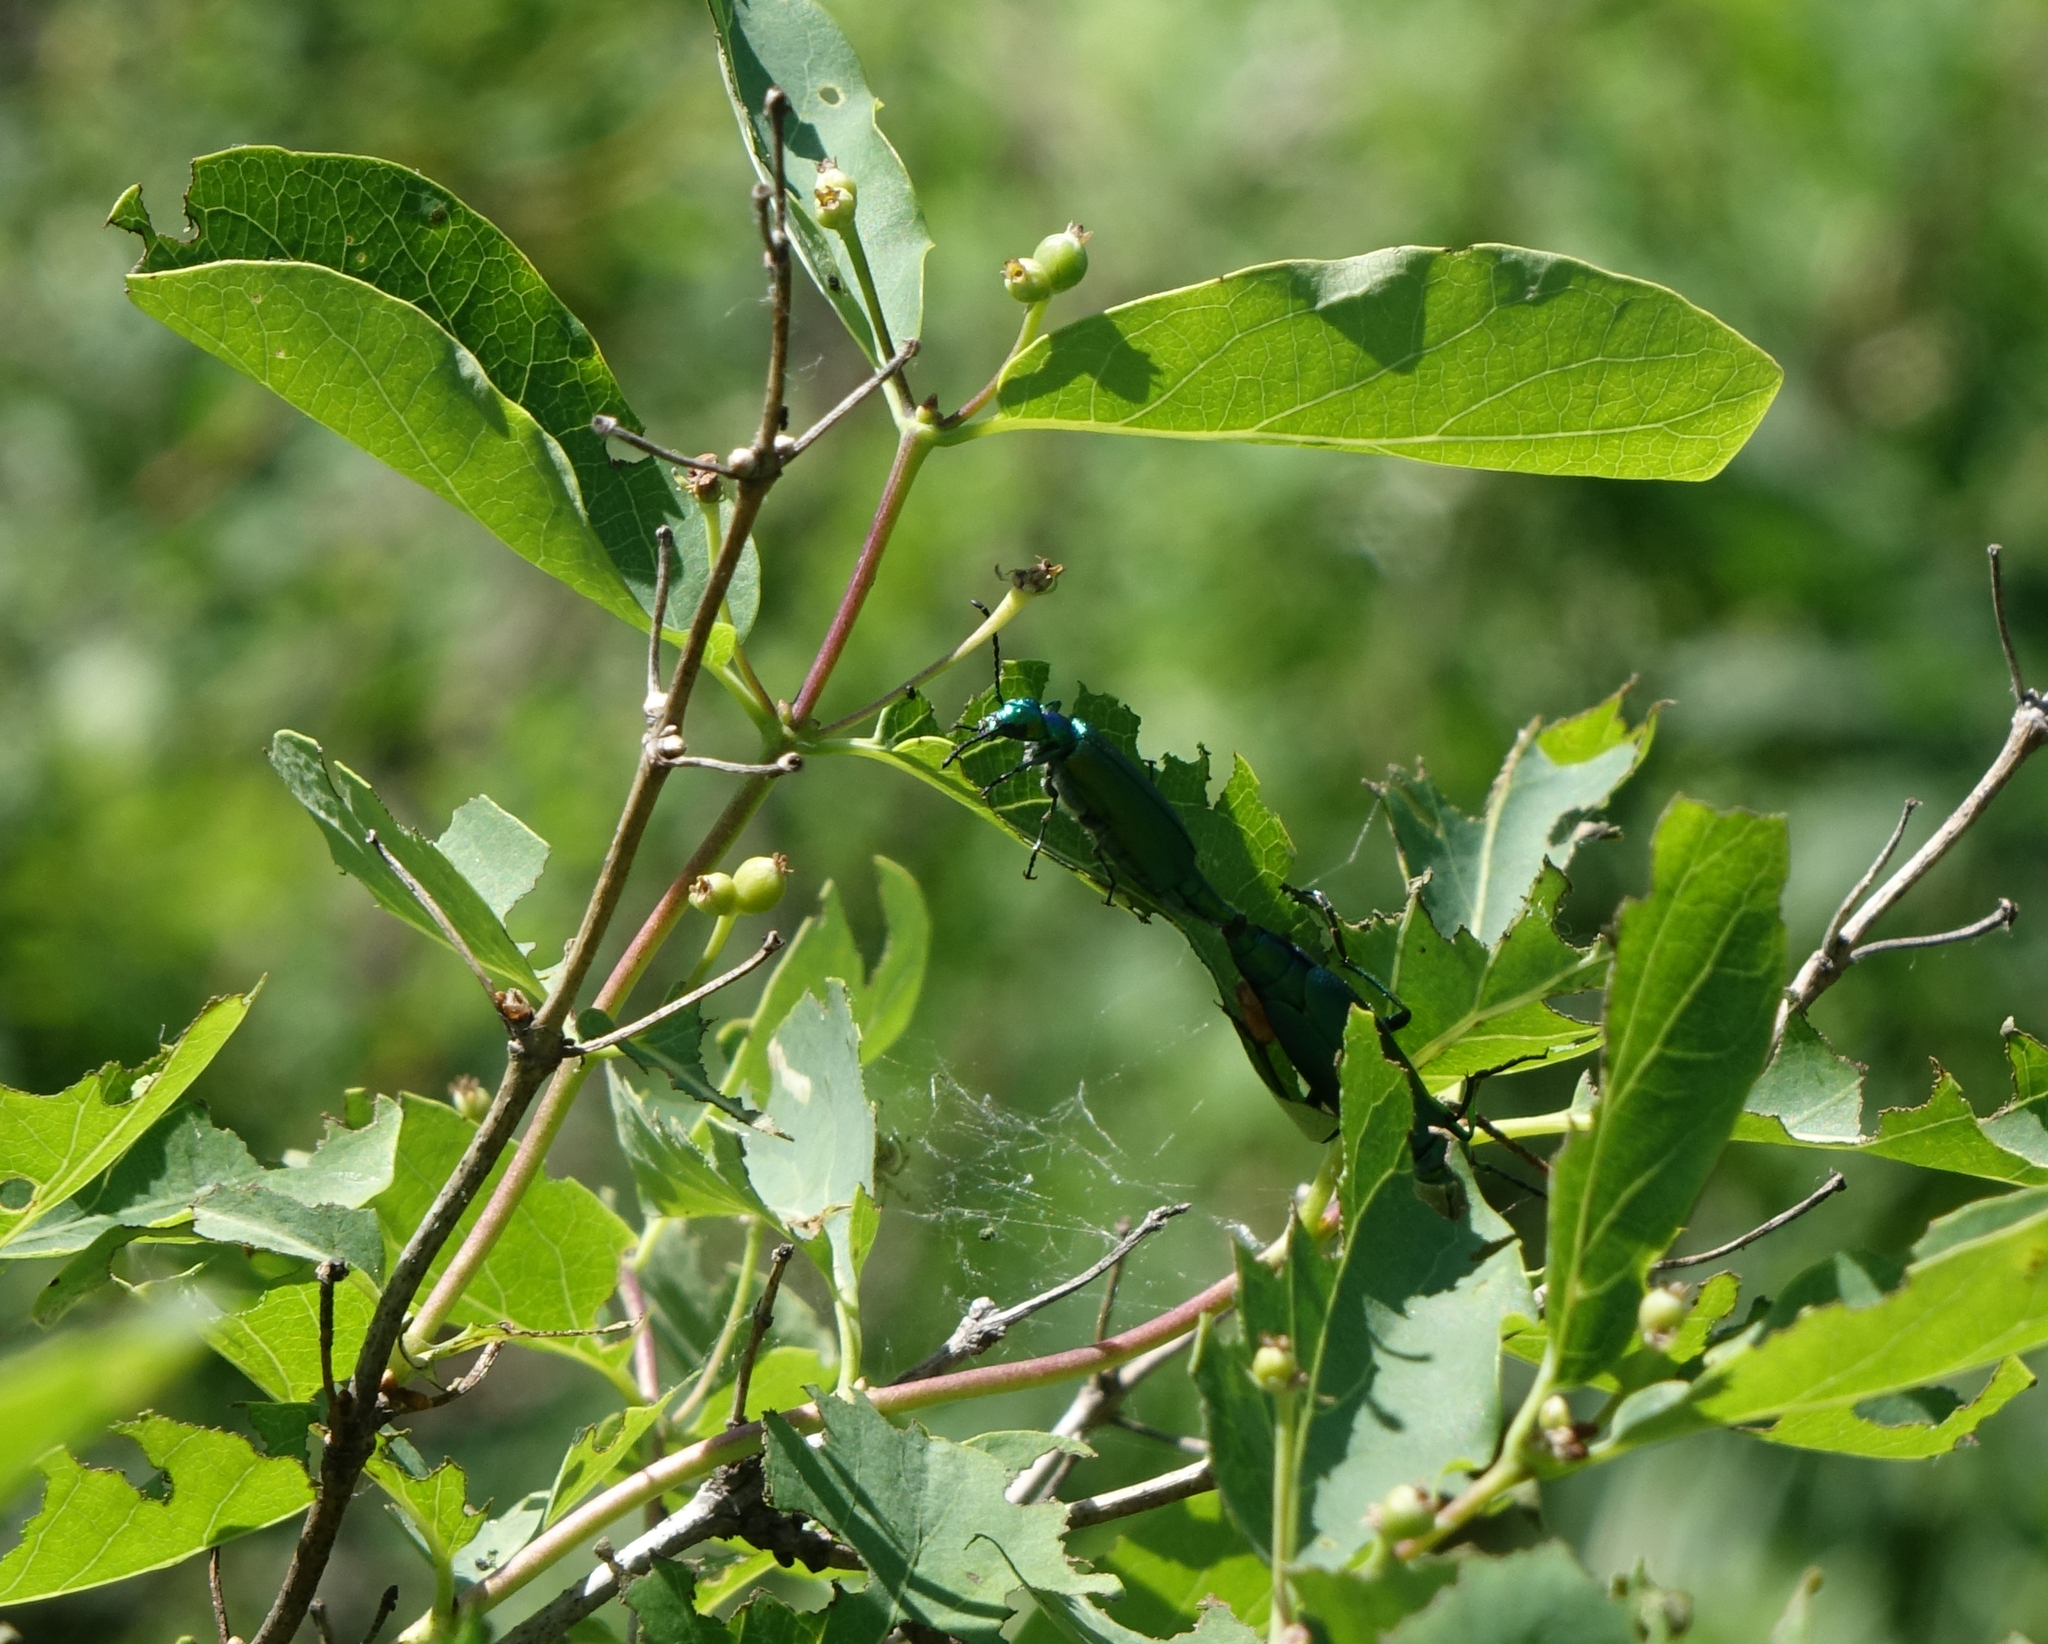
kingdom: Plantae
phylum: Tracheophyta
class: Magnoliopsida
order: Dipsacales
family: Caprifoliaceae
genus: Lonicera
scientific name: Lonicera tatarica
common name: Tatarian honeysuckle
